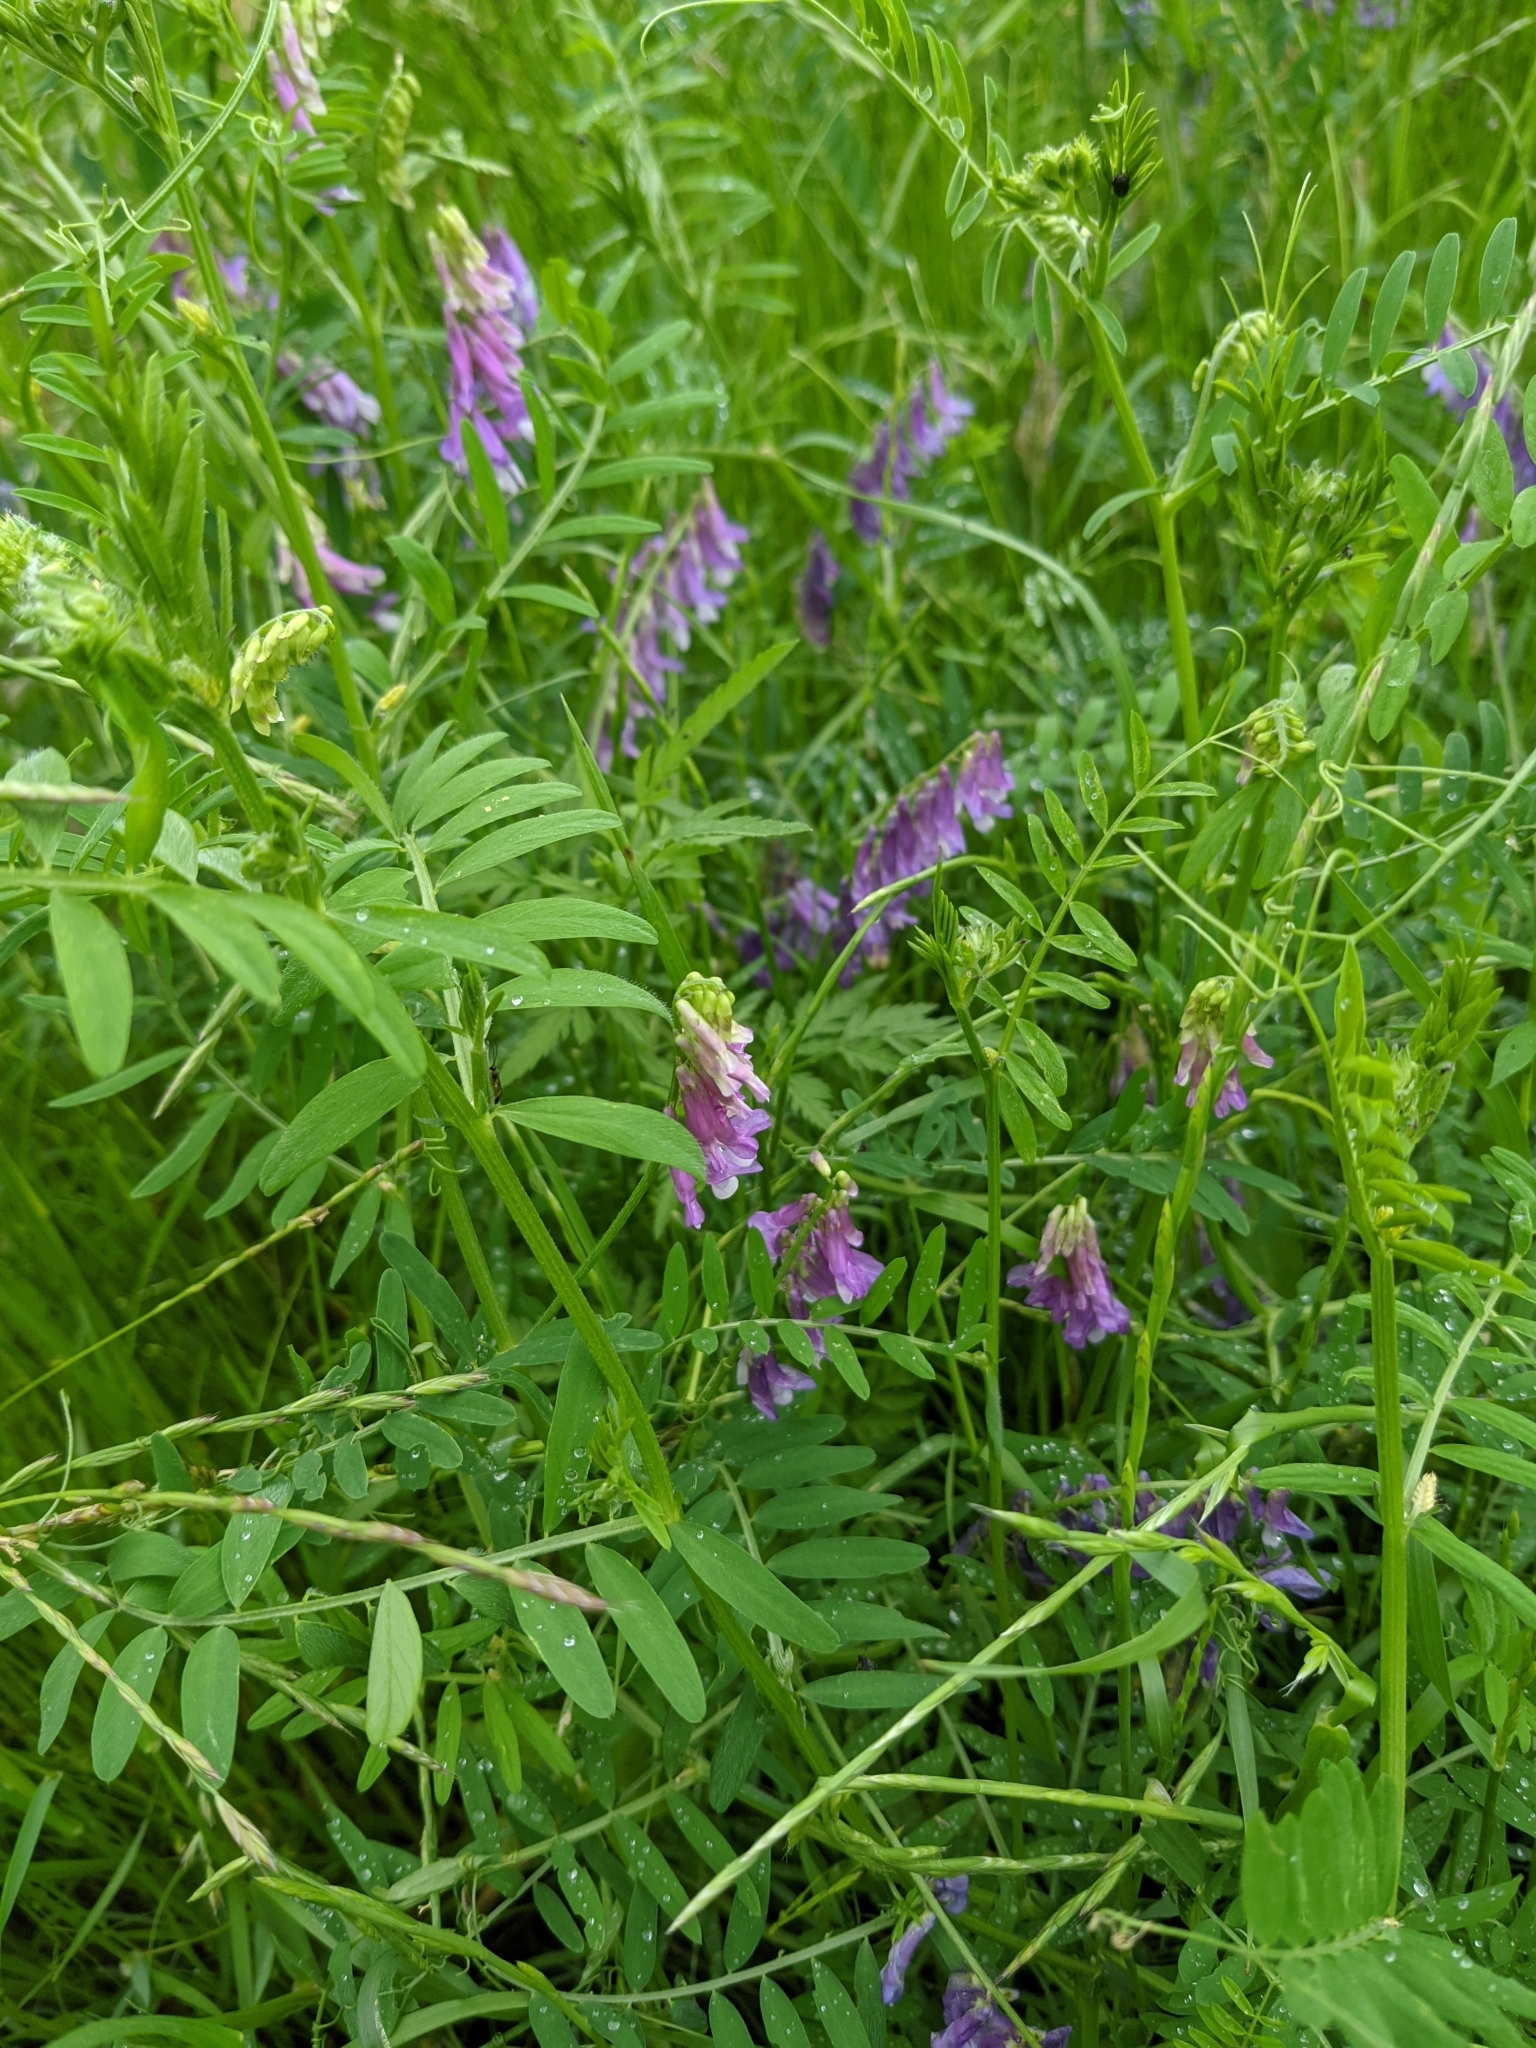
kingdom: Plantae
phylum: Tracheophyta
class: Magnoliopsida
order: Fabales
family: Fabaceae
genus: Vicia
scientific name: Vicia villosa
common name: Fodder vetch
